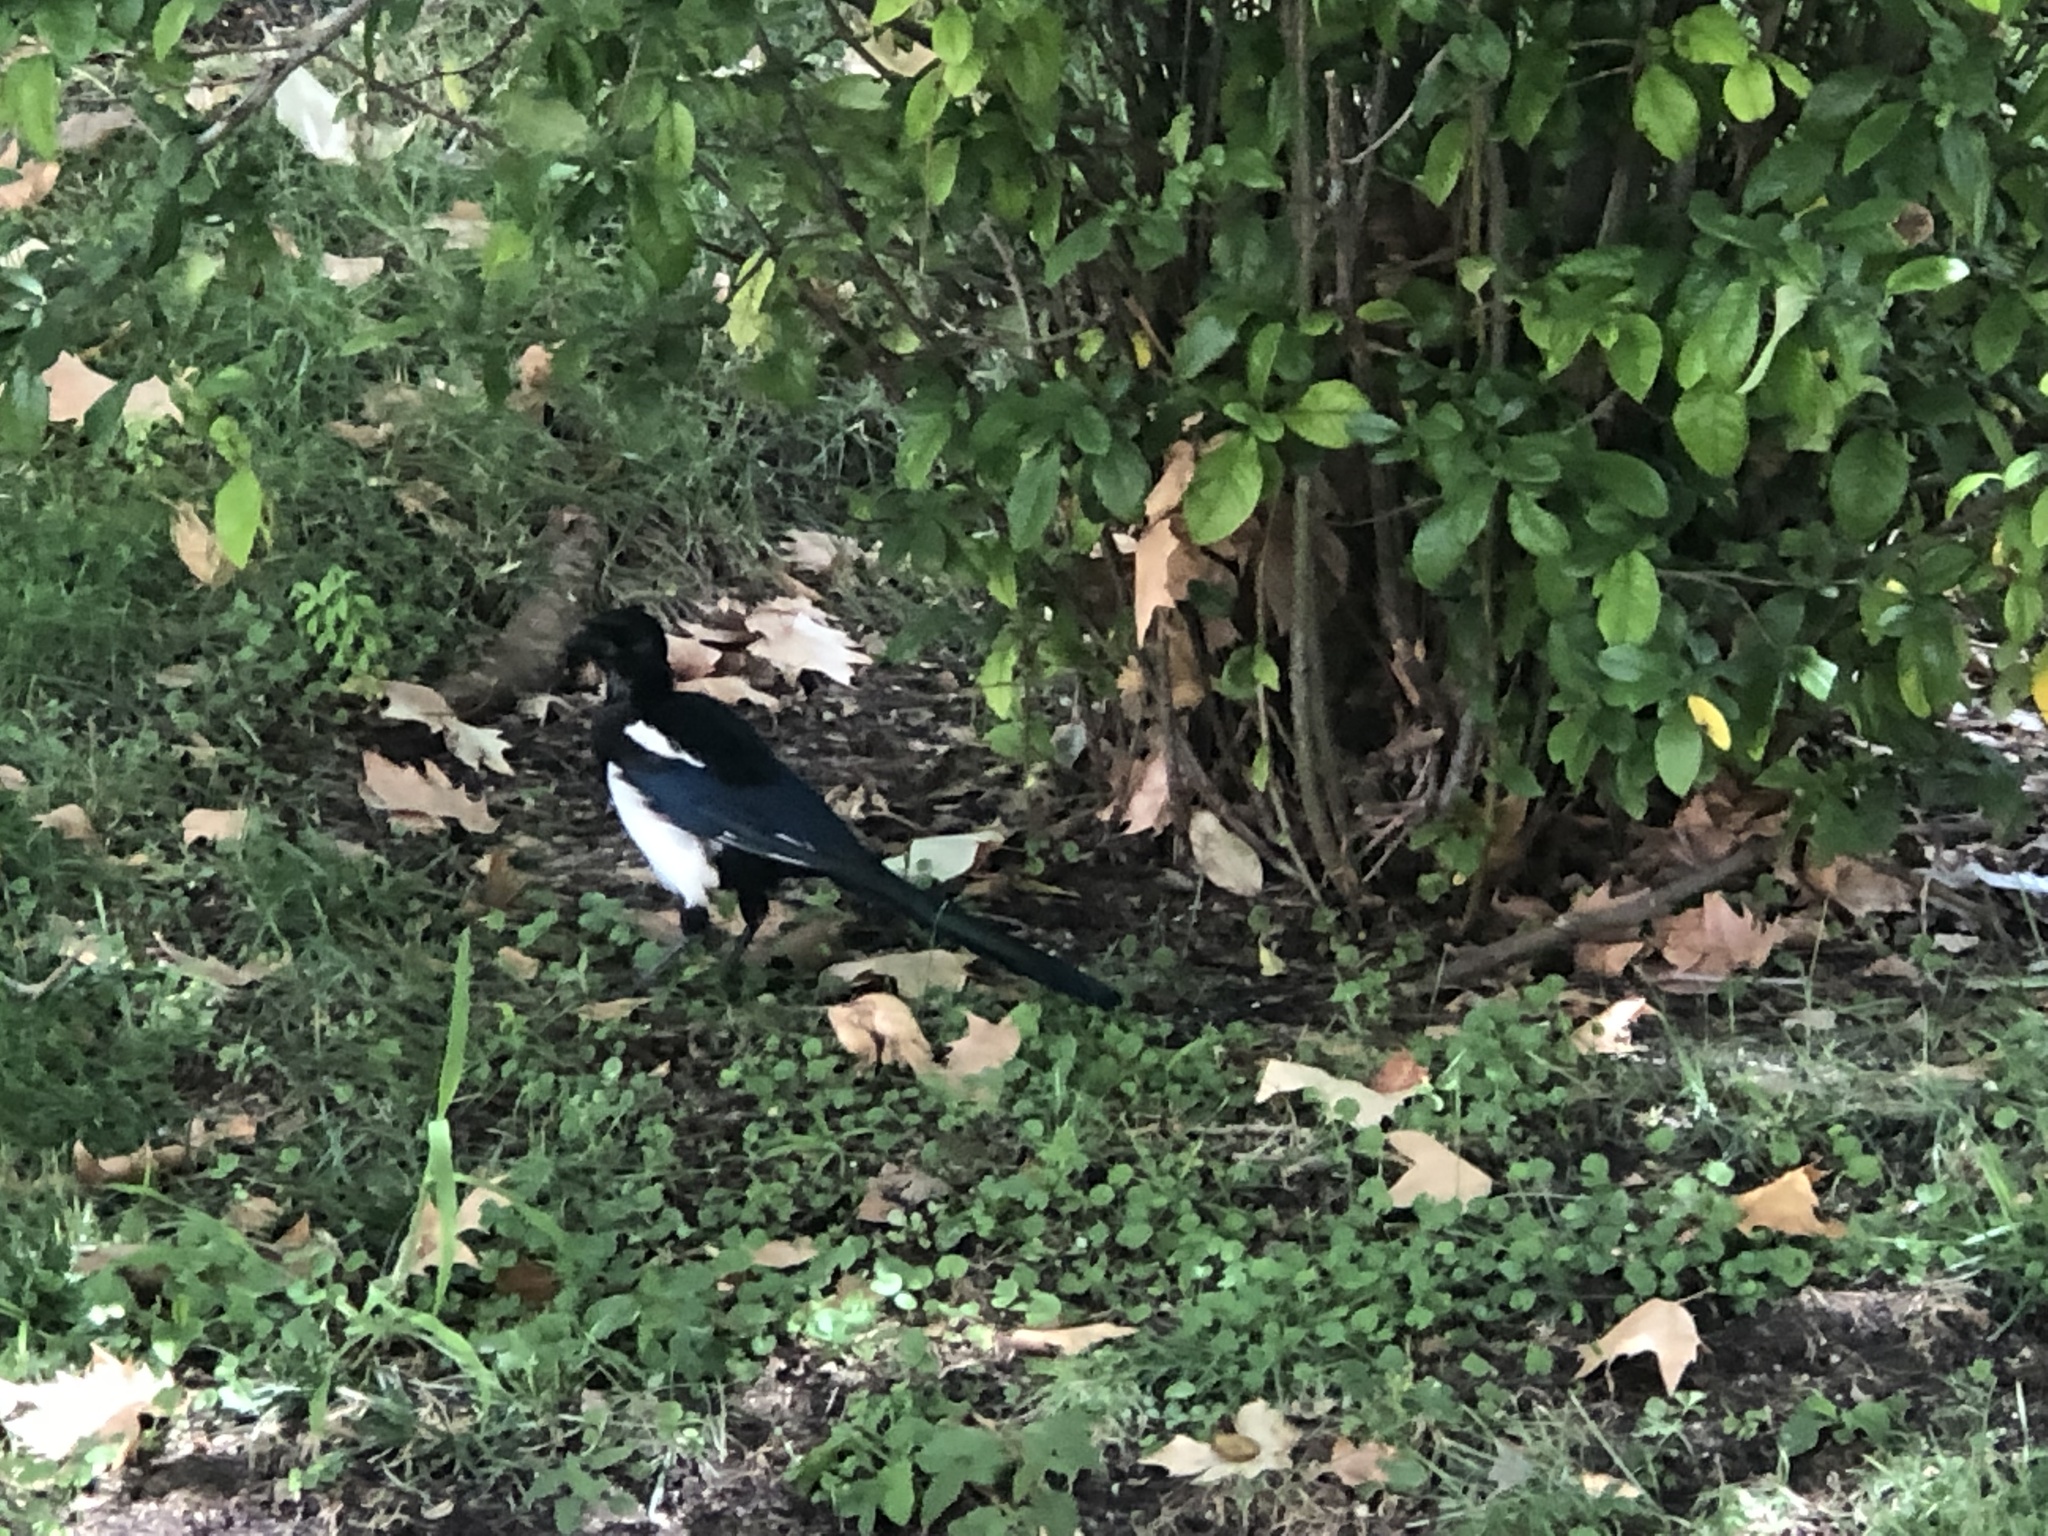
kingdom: Animalia
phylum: Chordata
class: Aves
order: Passeriformes
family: Corvidae
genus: Pica
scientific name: Pica pica
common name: Eurasian magpie
